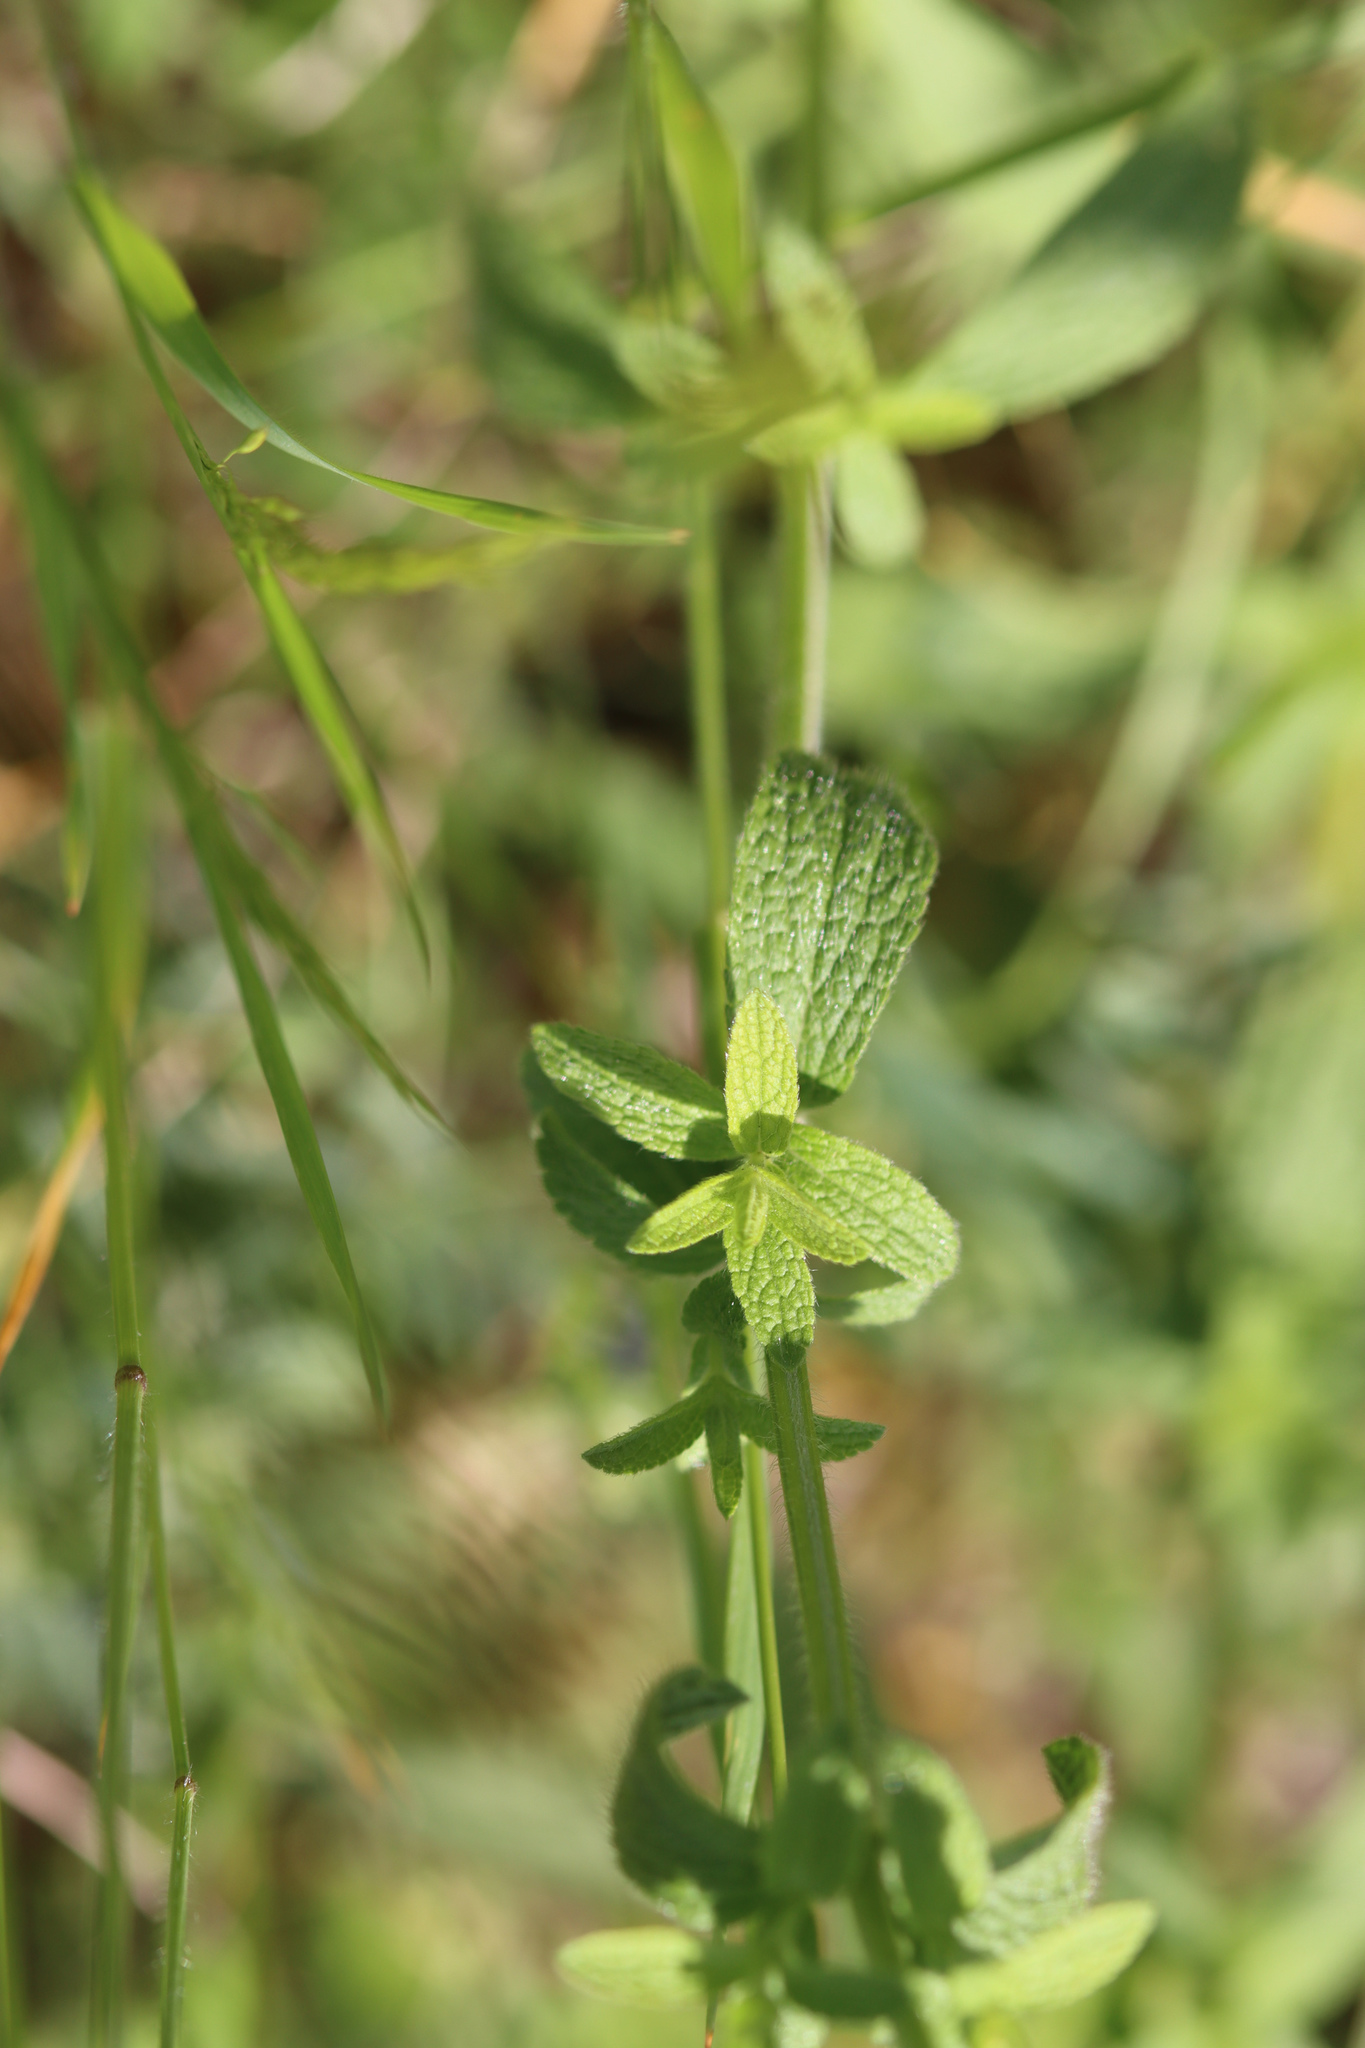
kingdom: Plantae
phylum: Tracheophyta
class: Magnoliopsida
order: Lamiales
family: Lamiaceae
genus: Stachys
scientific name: Stachys recta
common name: Perennial yellow-woundwort
